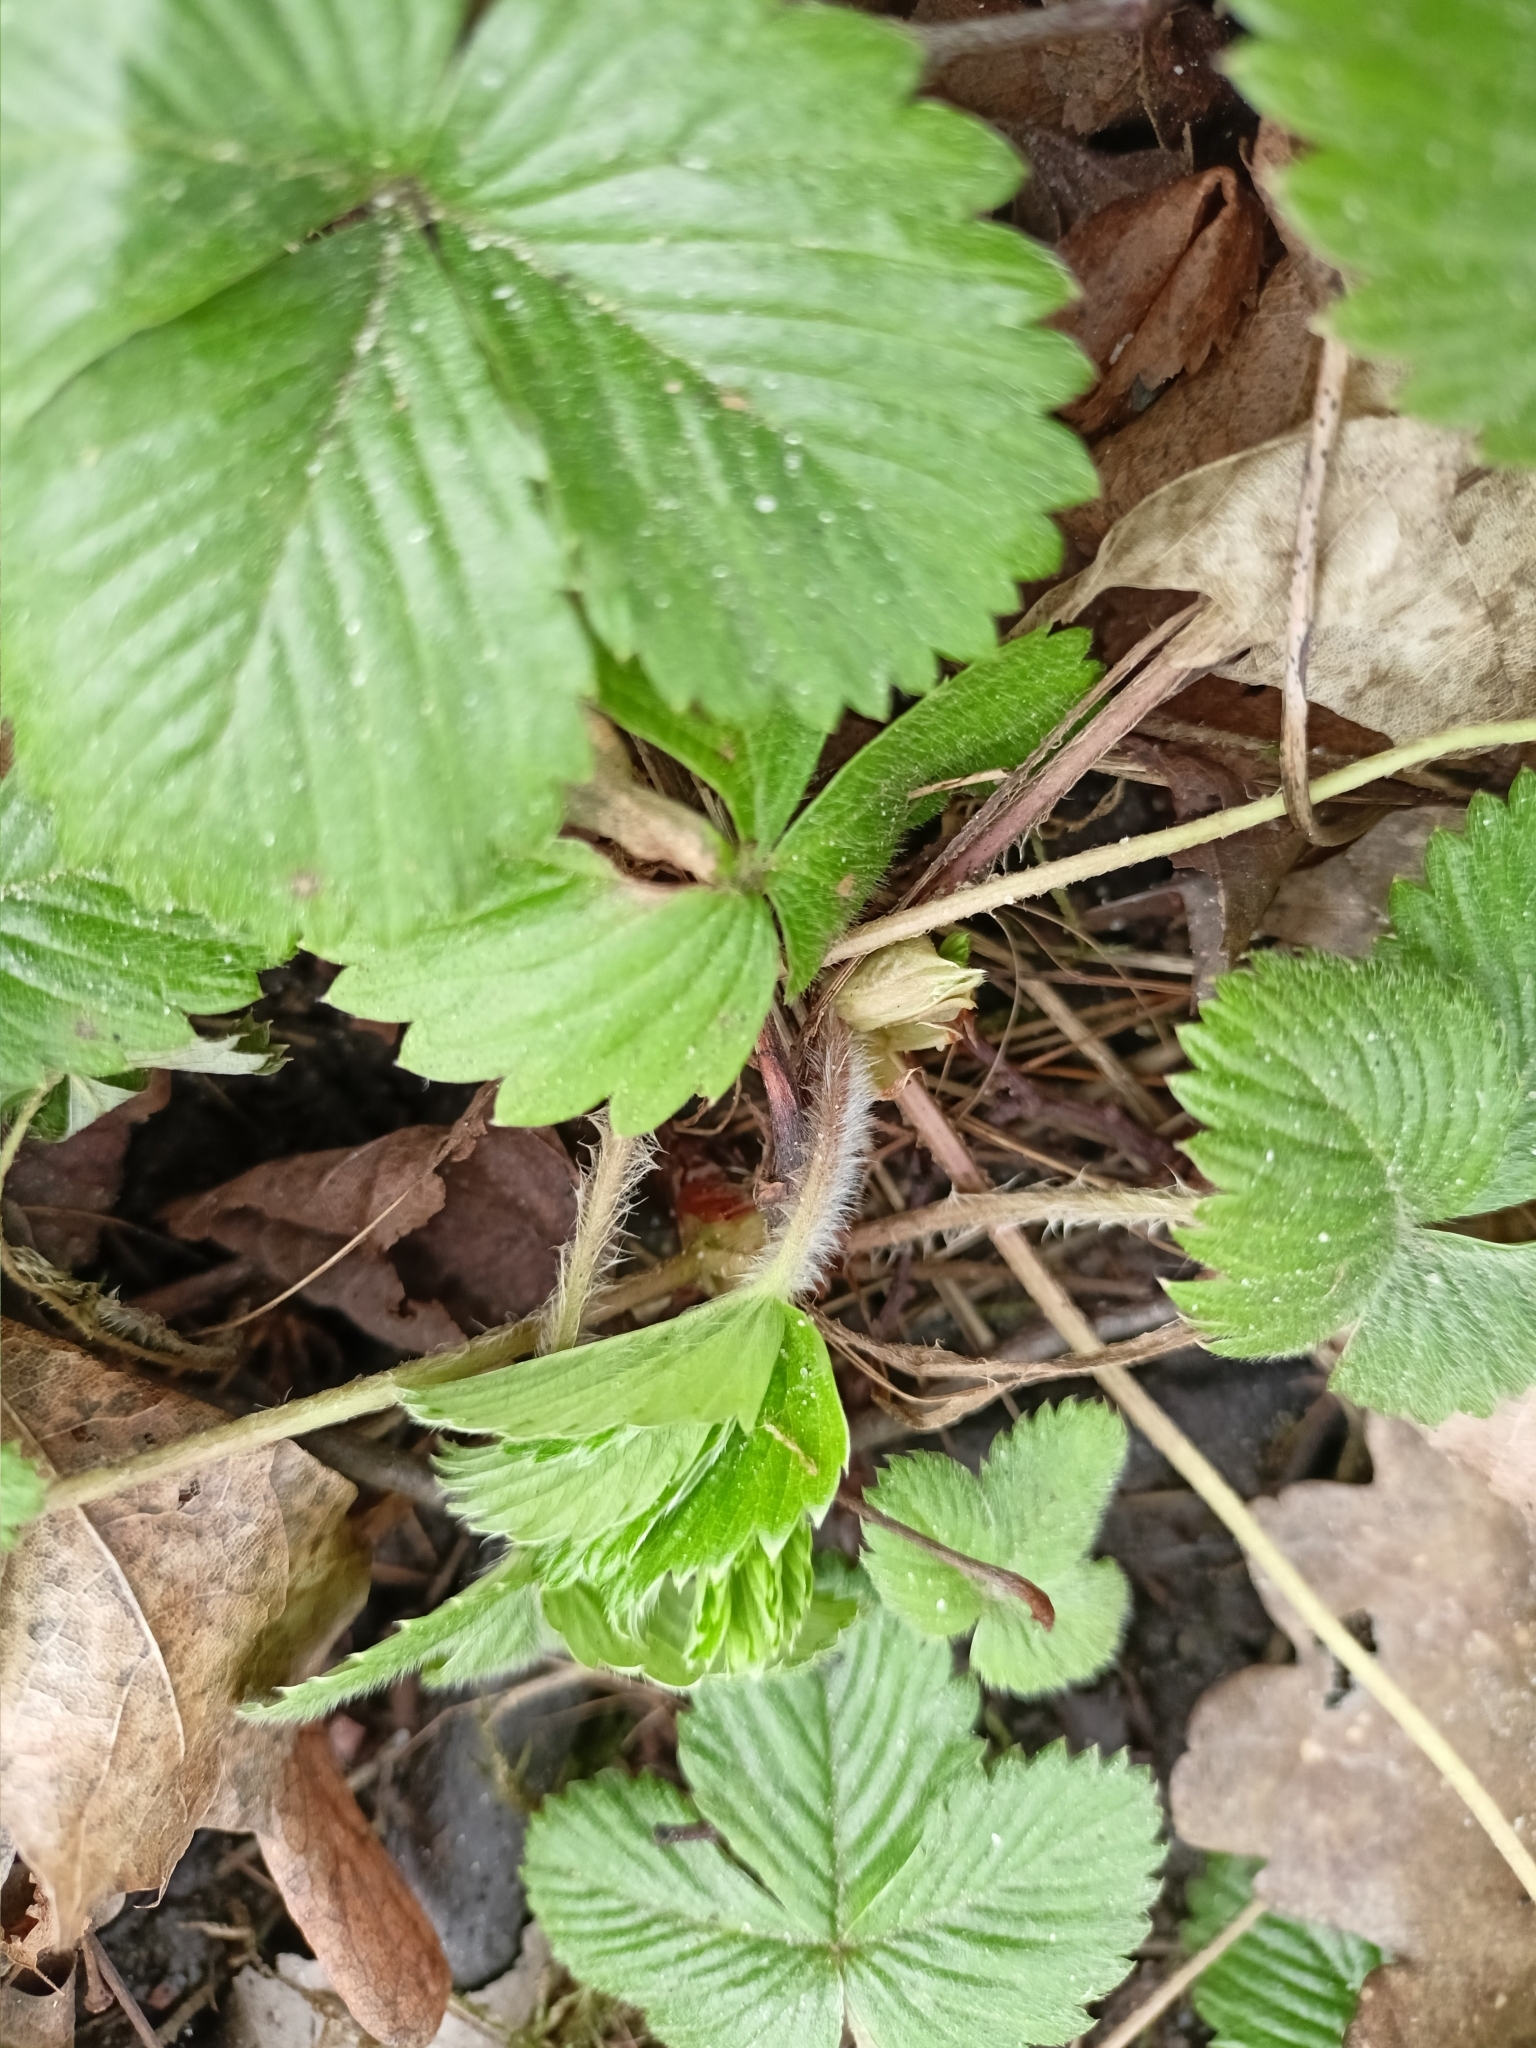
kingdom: Plantae
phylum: Tracheophyta
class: Magnoliopsida
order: Rosales
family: Rosaceae
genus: Fragaria
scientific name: Fragaria vesca
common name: Wild strawberry
